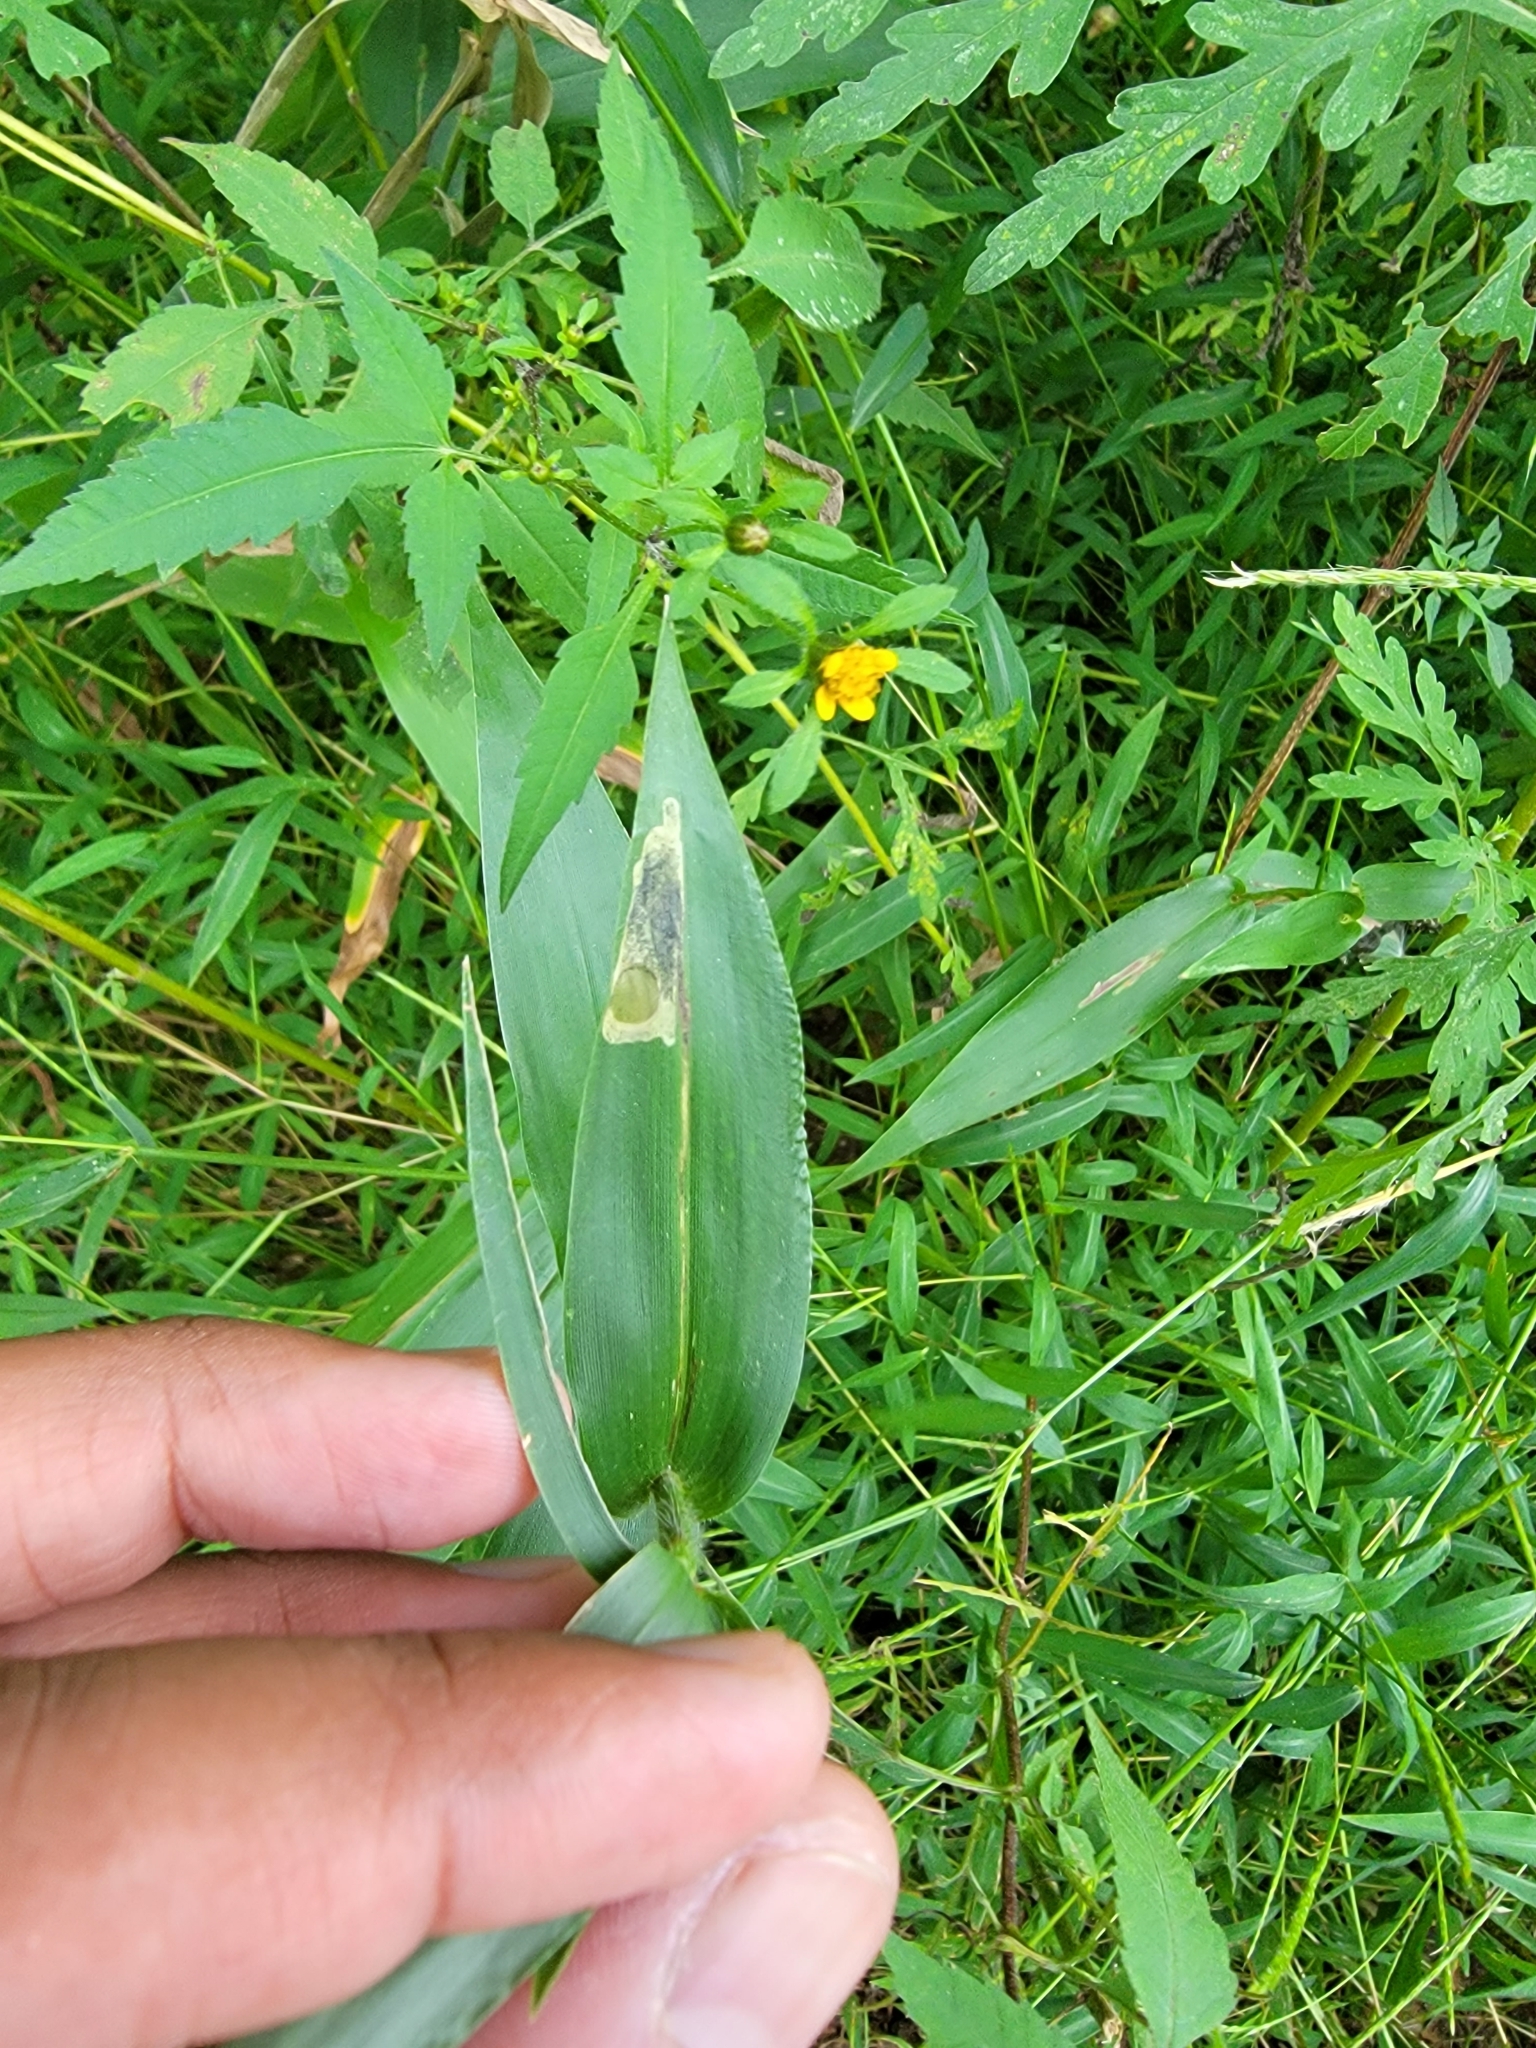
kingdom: Animalia
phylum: Arthropoda
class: Insecta
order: Lepidoptera
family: Heliodinidae
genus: Cycloplasis
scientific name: Cycloplasis panicifoliella
